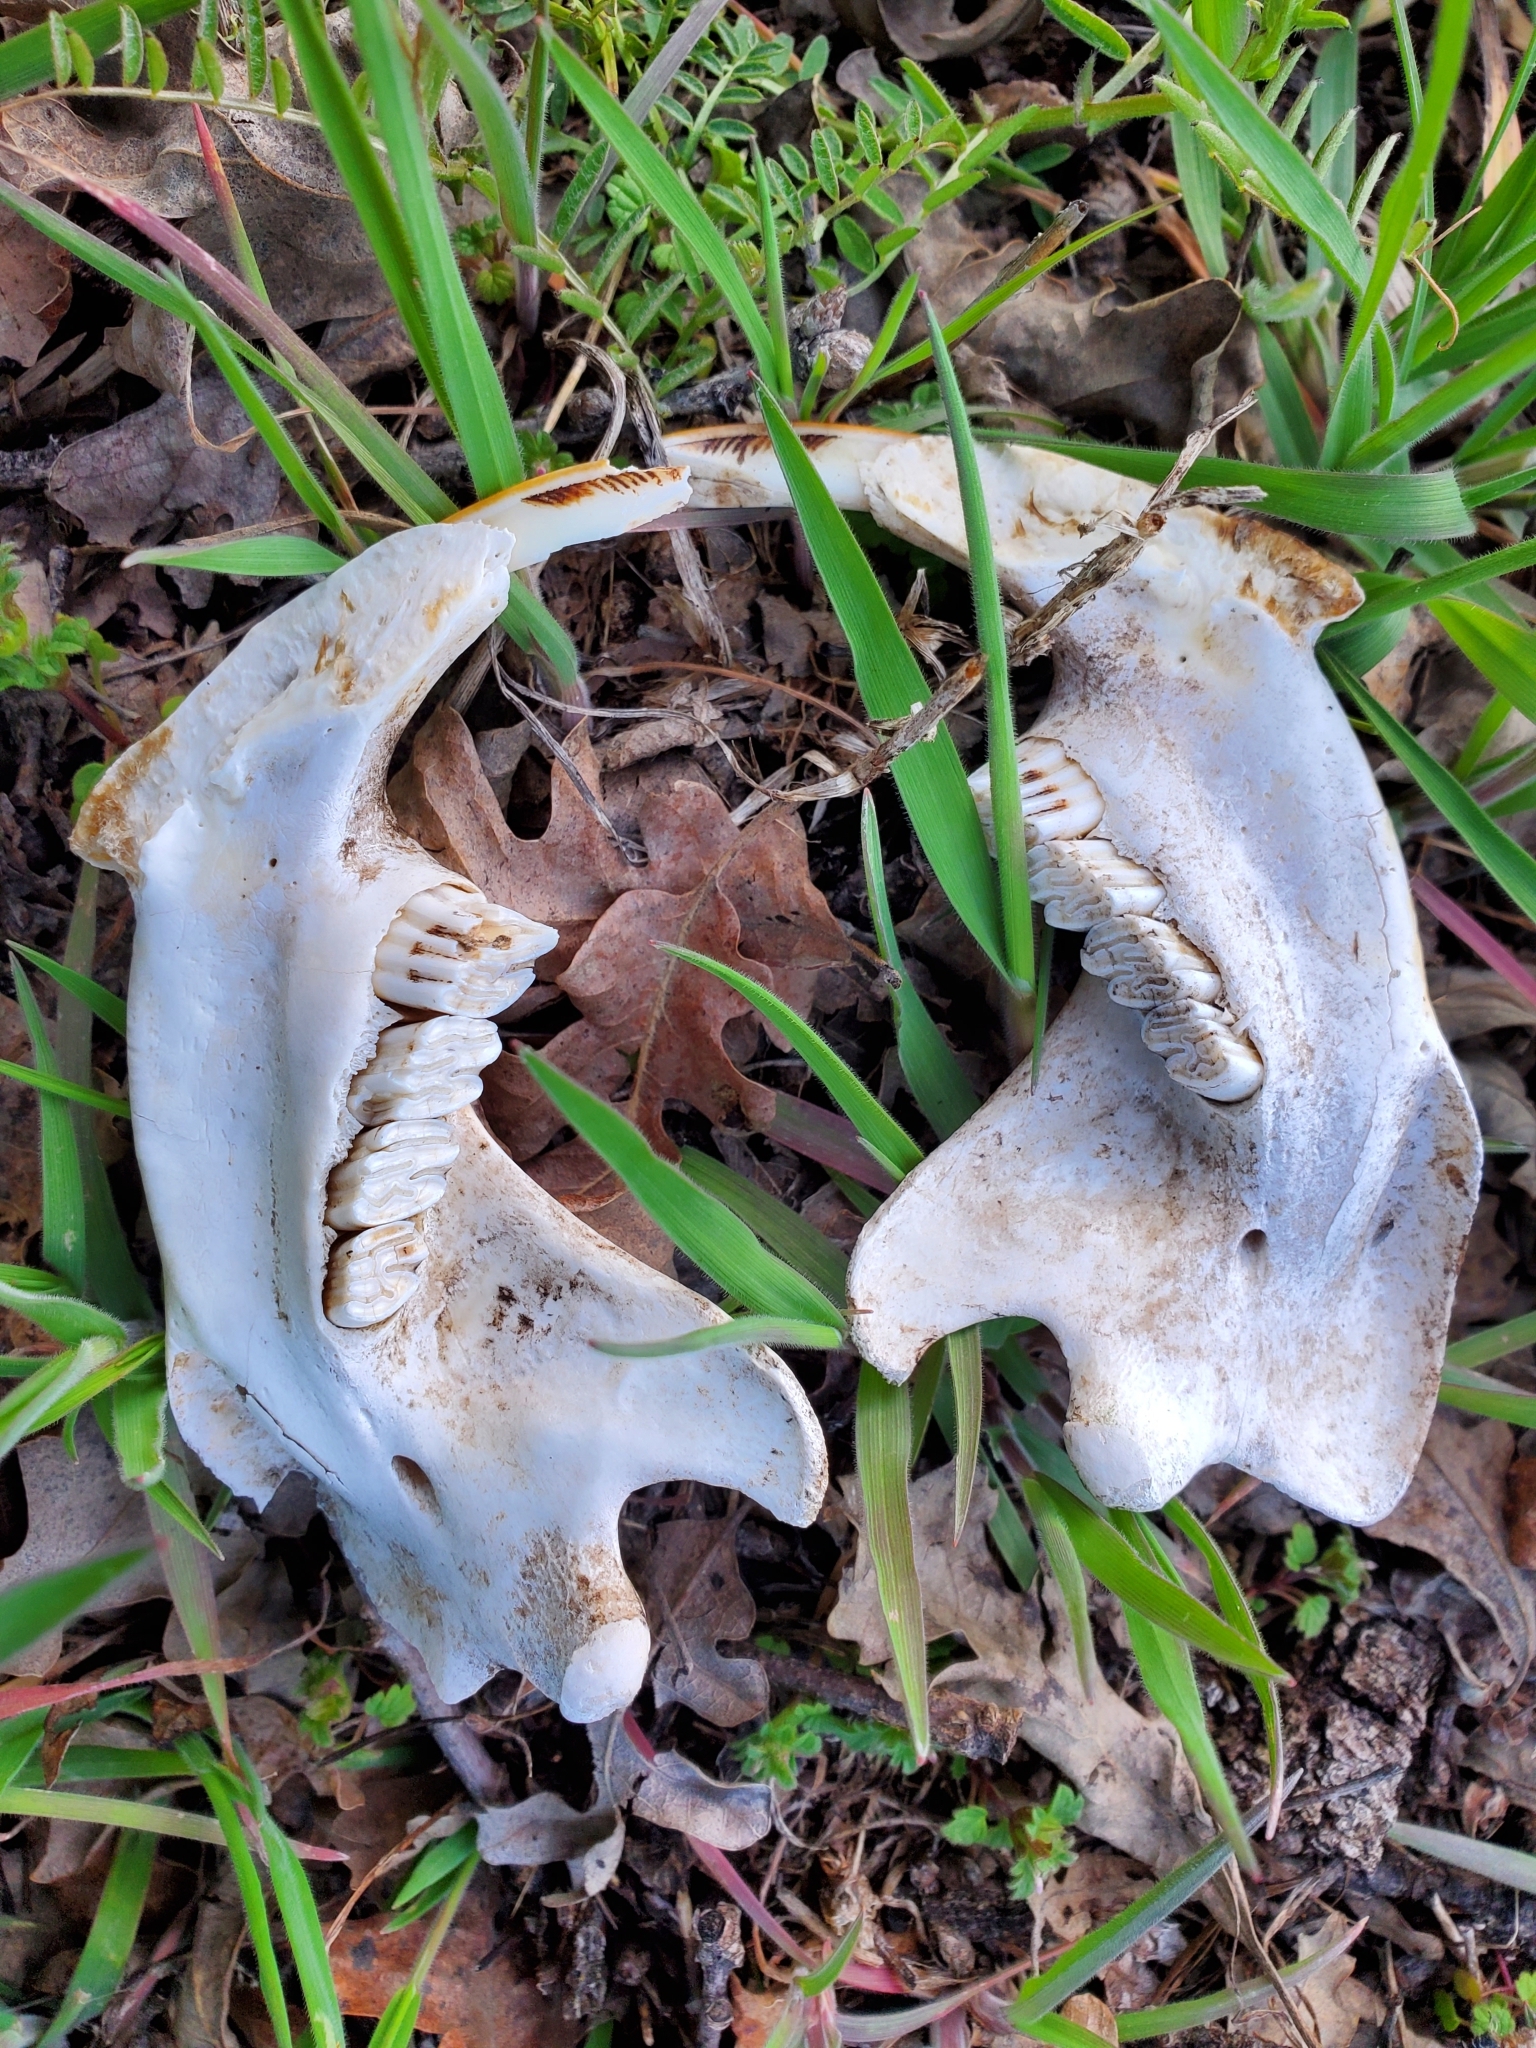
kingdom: Animalia
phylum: Chordata
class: Mammalia
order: Rodentia
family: Castoridae
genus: Castor
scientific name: Castor canadensis
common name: American beaver
